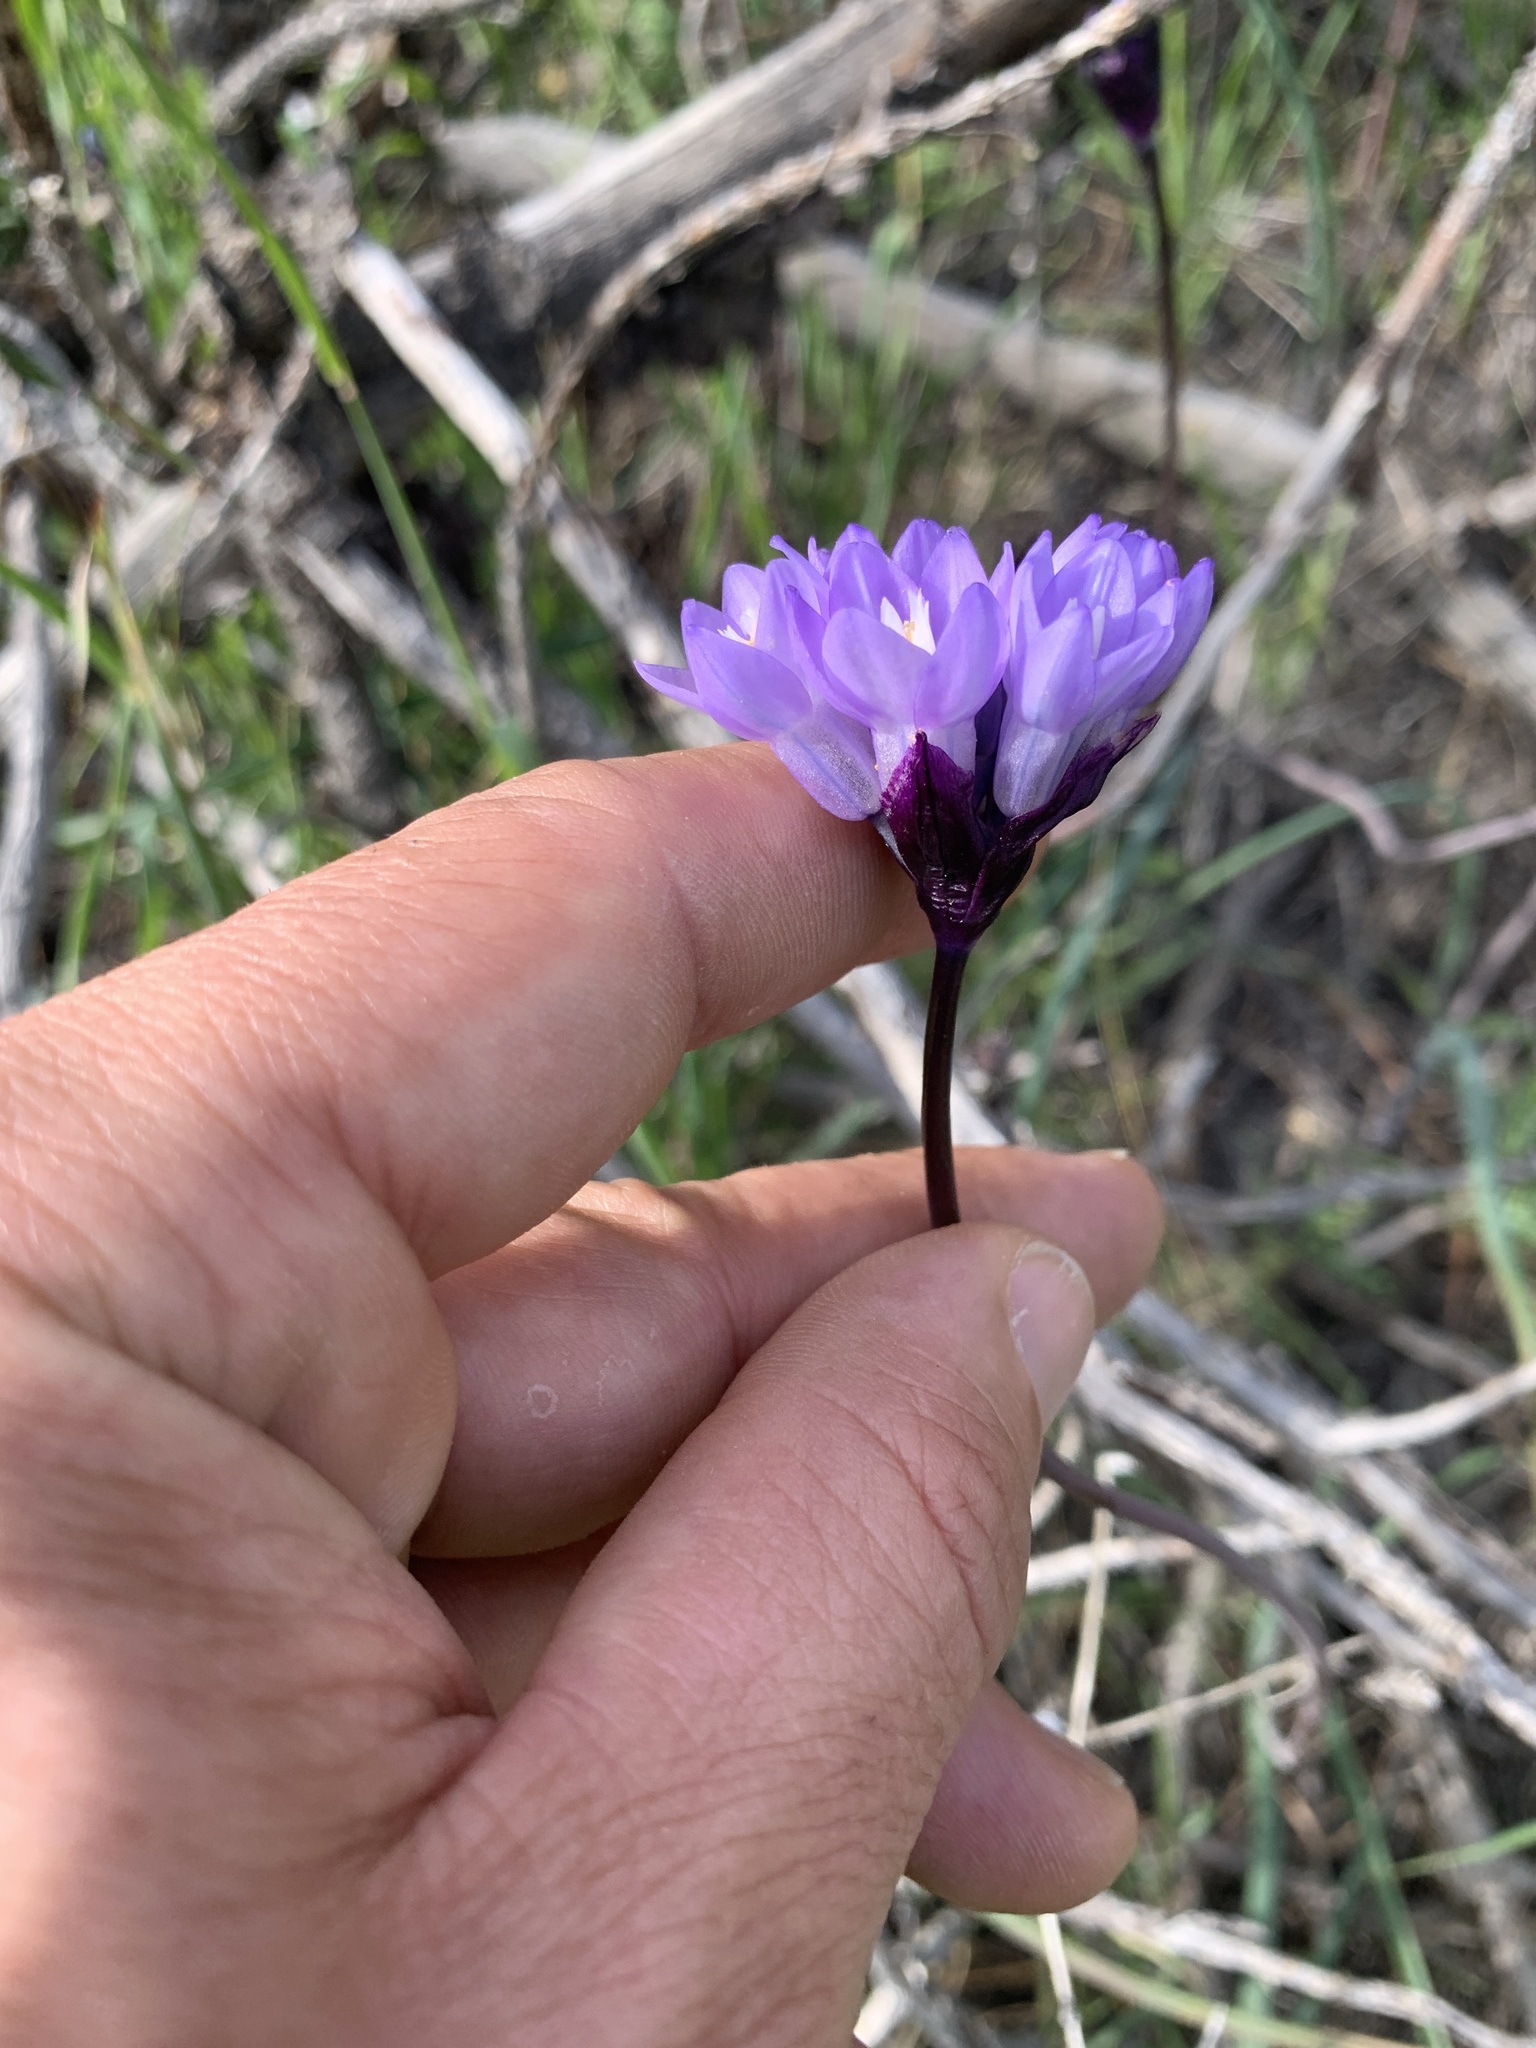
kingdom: Plantae
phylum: Tracheophyta
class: Liliopsida
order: Asparagales
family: Asparagaceae
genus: Dipterostemon
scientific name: Dipterostemon capitatus
